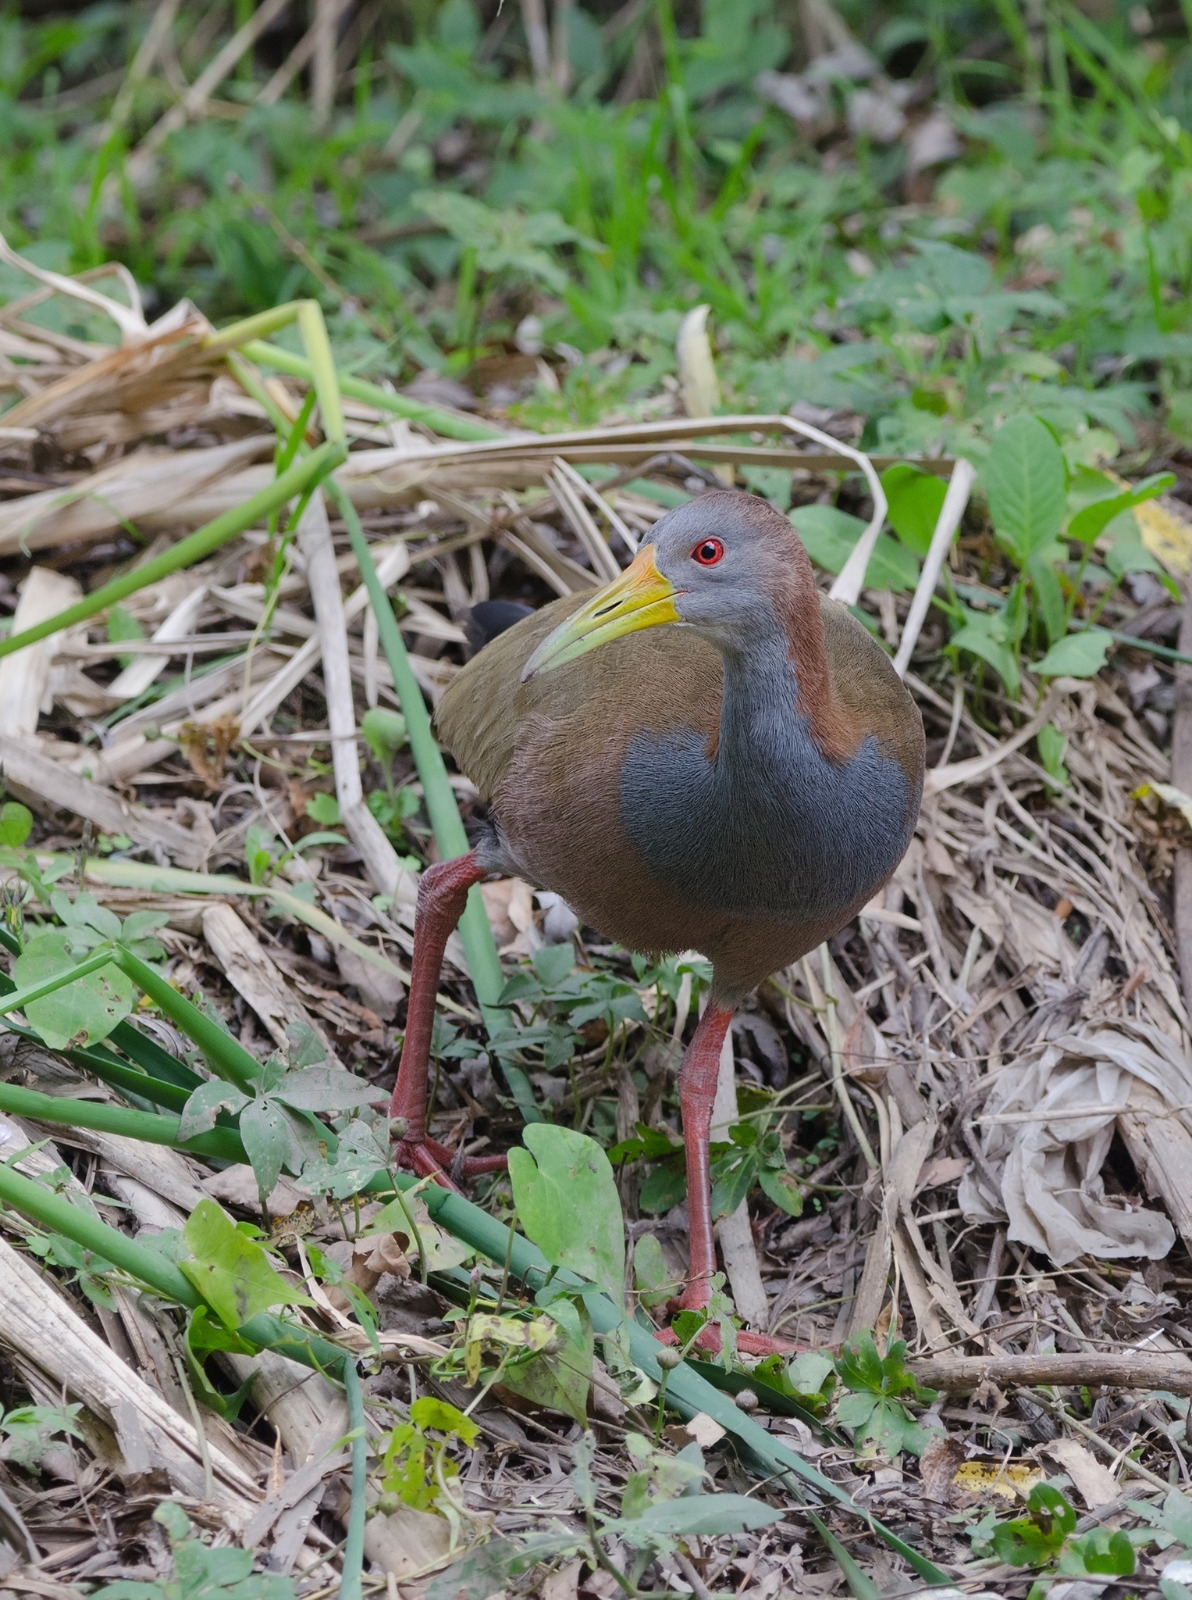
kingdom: Animalia
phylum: Chordata
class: Aves
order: Gruiformes
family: Rallidae
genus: Aramides
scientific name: Aramides ypecaha
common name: Giant wood rail
